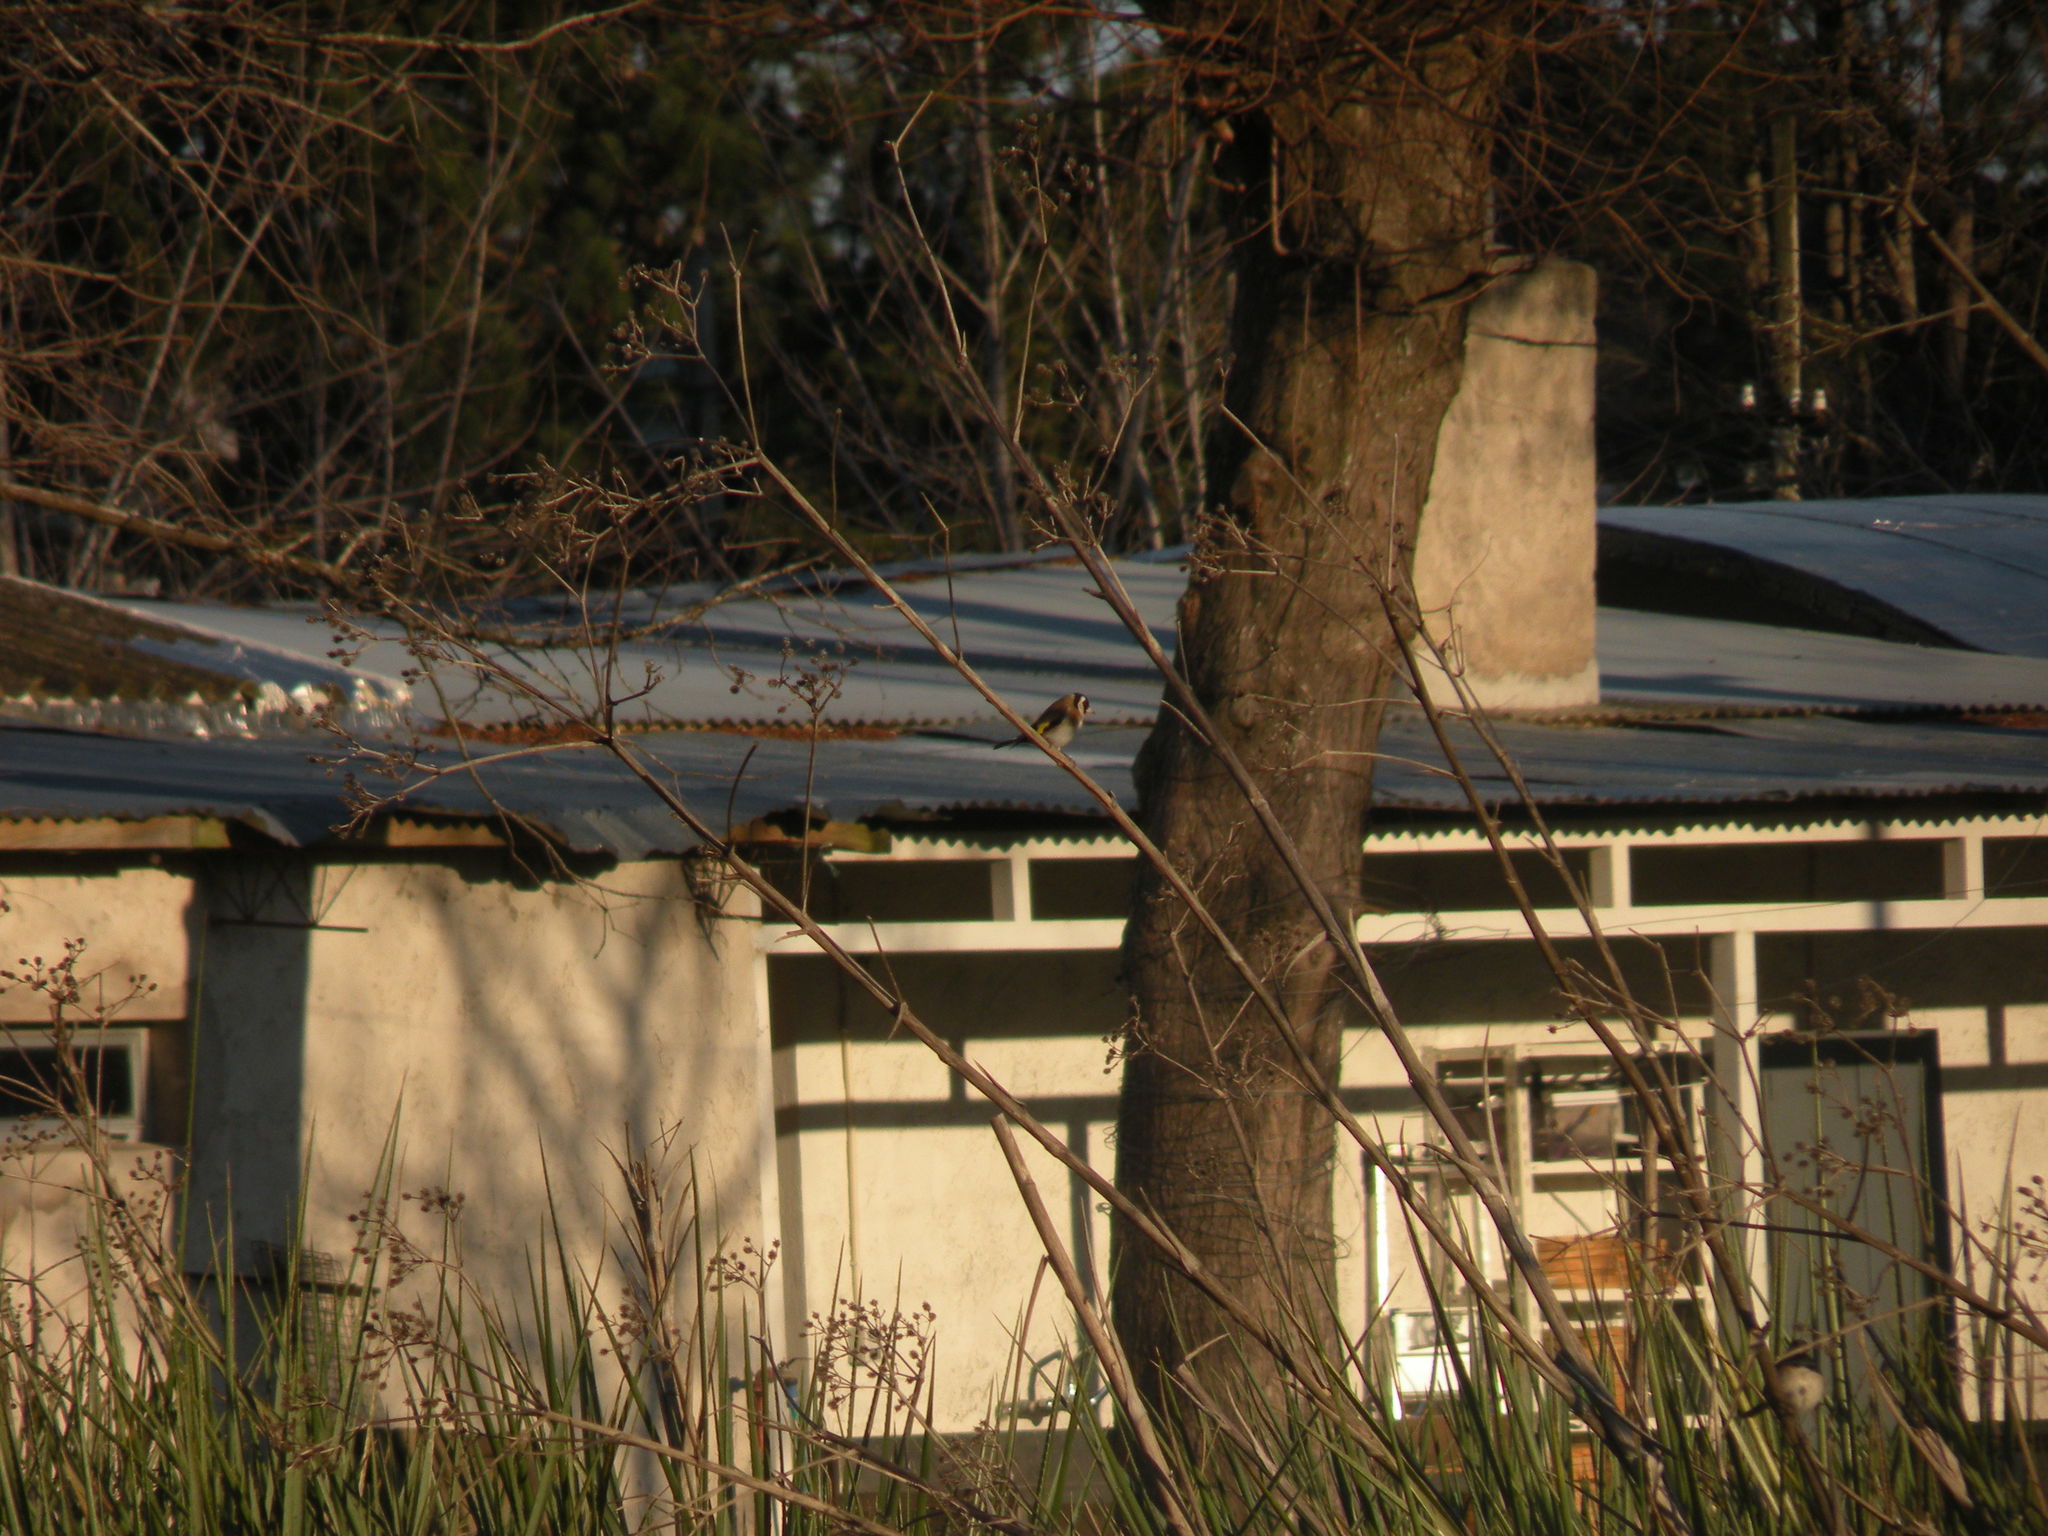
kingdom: Animalia
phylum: Chordata
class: Aves
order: Passeriformes
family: Fringillidae
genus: Carduelis
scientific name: Carduelis carduelis
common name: European goldfinch
